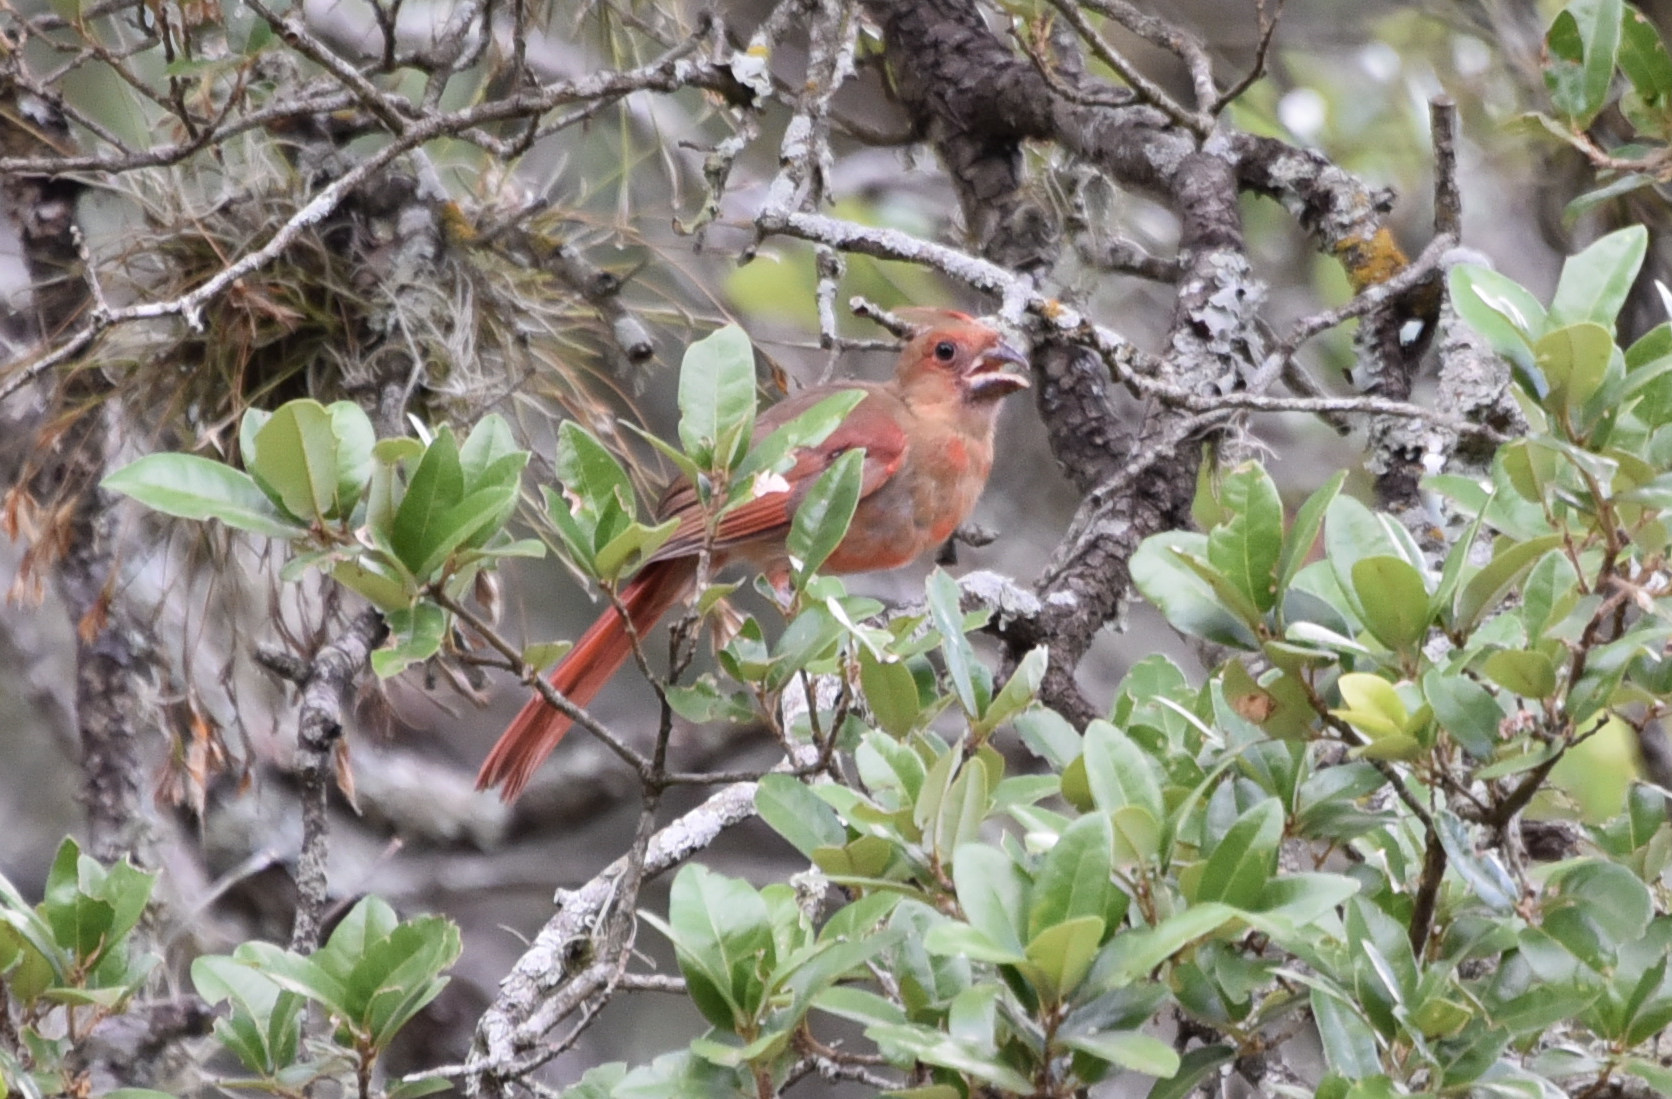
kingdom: Animalia
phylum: Chordata
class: Aves
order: Passeriformes
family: Cardinalidae
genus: Cardinalis
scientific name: Cardinalis cardinalis
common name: Northern cardinal
